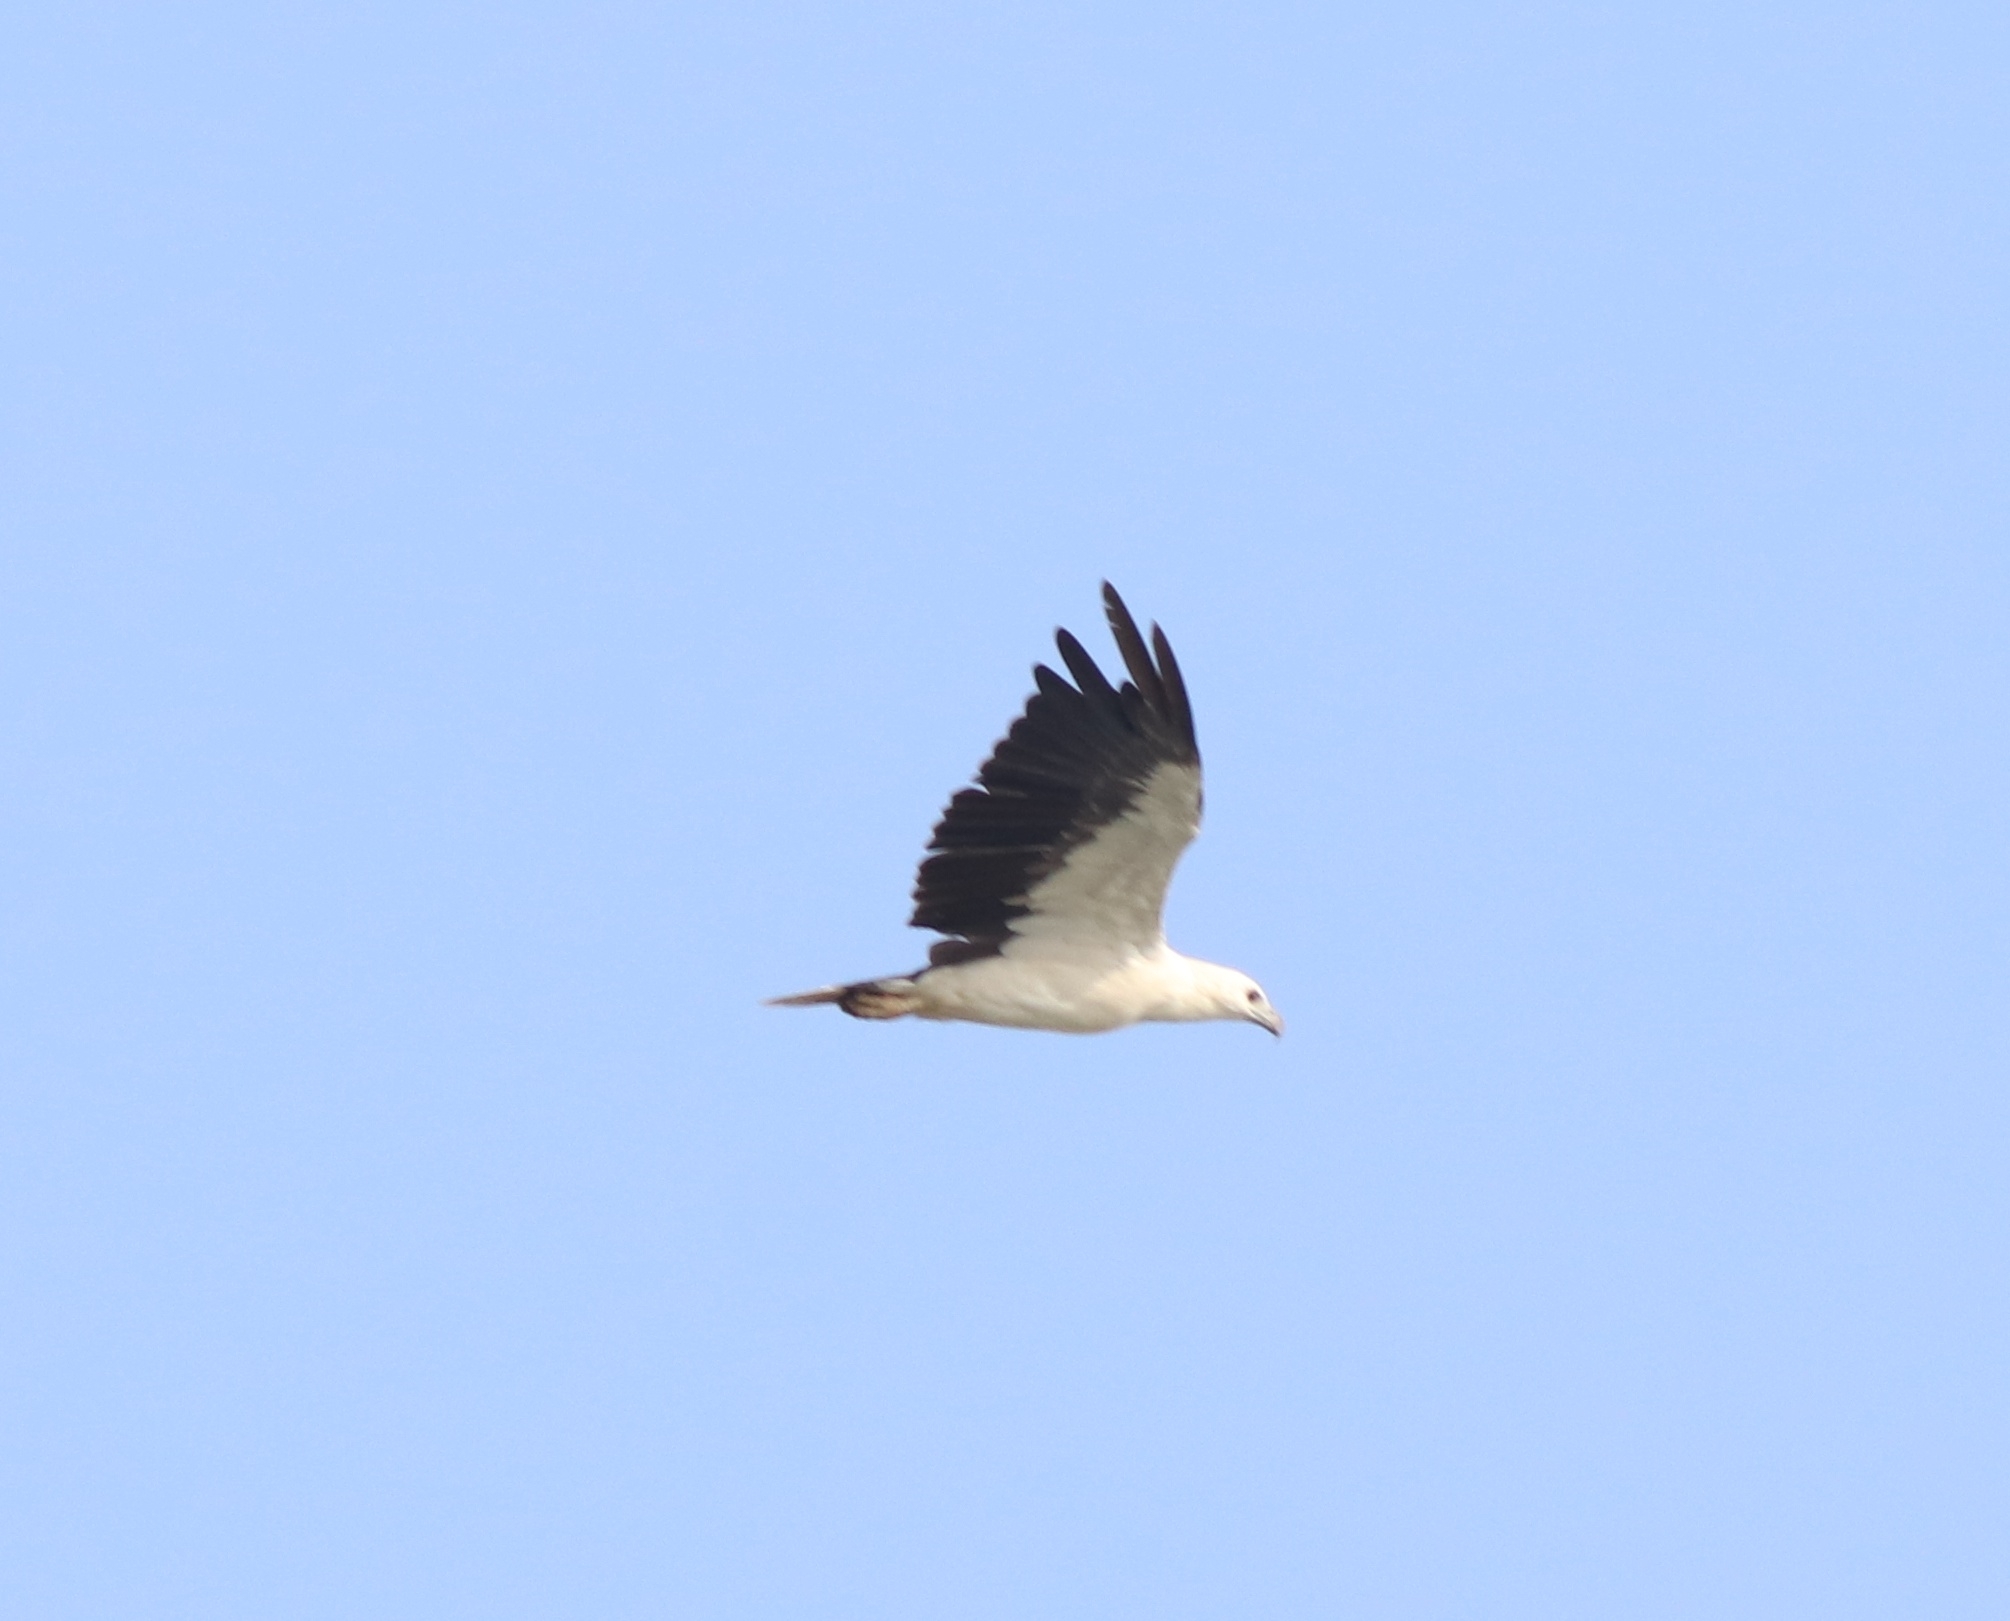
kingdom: Animalia
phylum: Chordata
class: Aves
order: Accipitriformes
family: Accipitridae
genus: Haliaeetus
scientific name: Haliaeetus leucogaster
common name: White-bellied sea eagle
